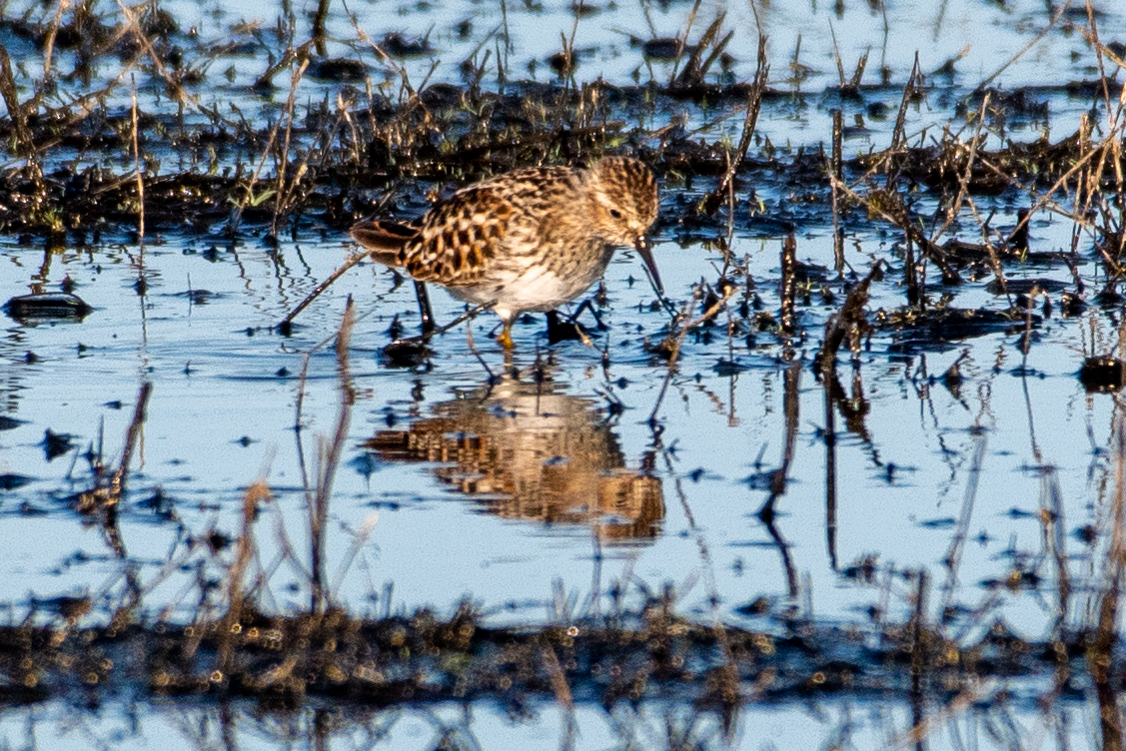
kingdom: Animalia
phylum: Chordata
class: Aves
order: Charadriiformes
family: Scolopacidae
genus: Calidris
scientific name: Calidris minutilla
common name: Least sandpiper
